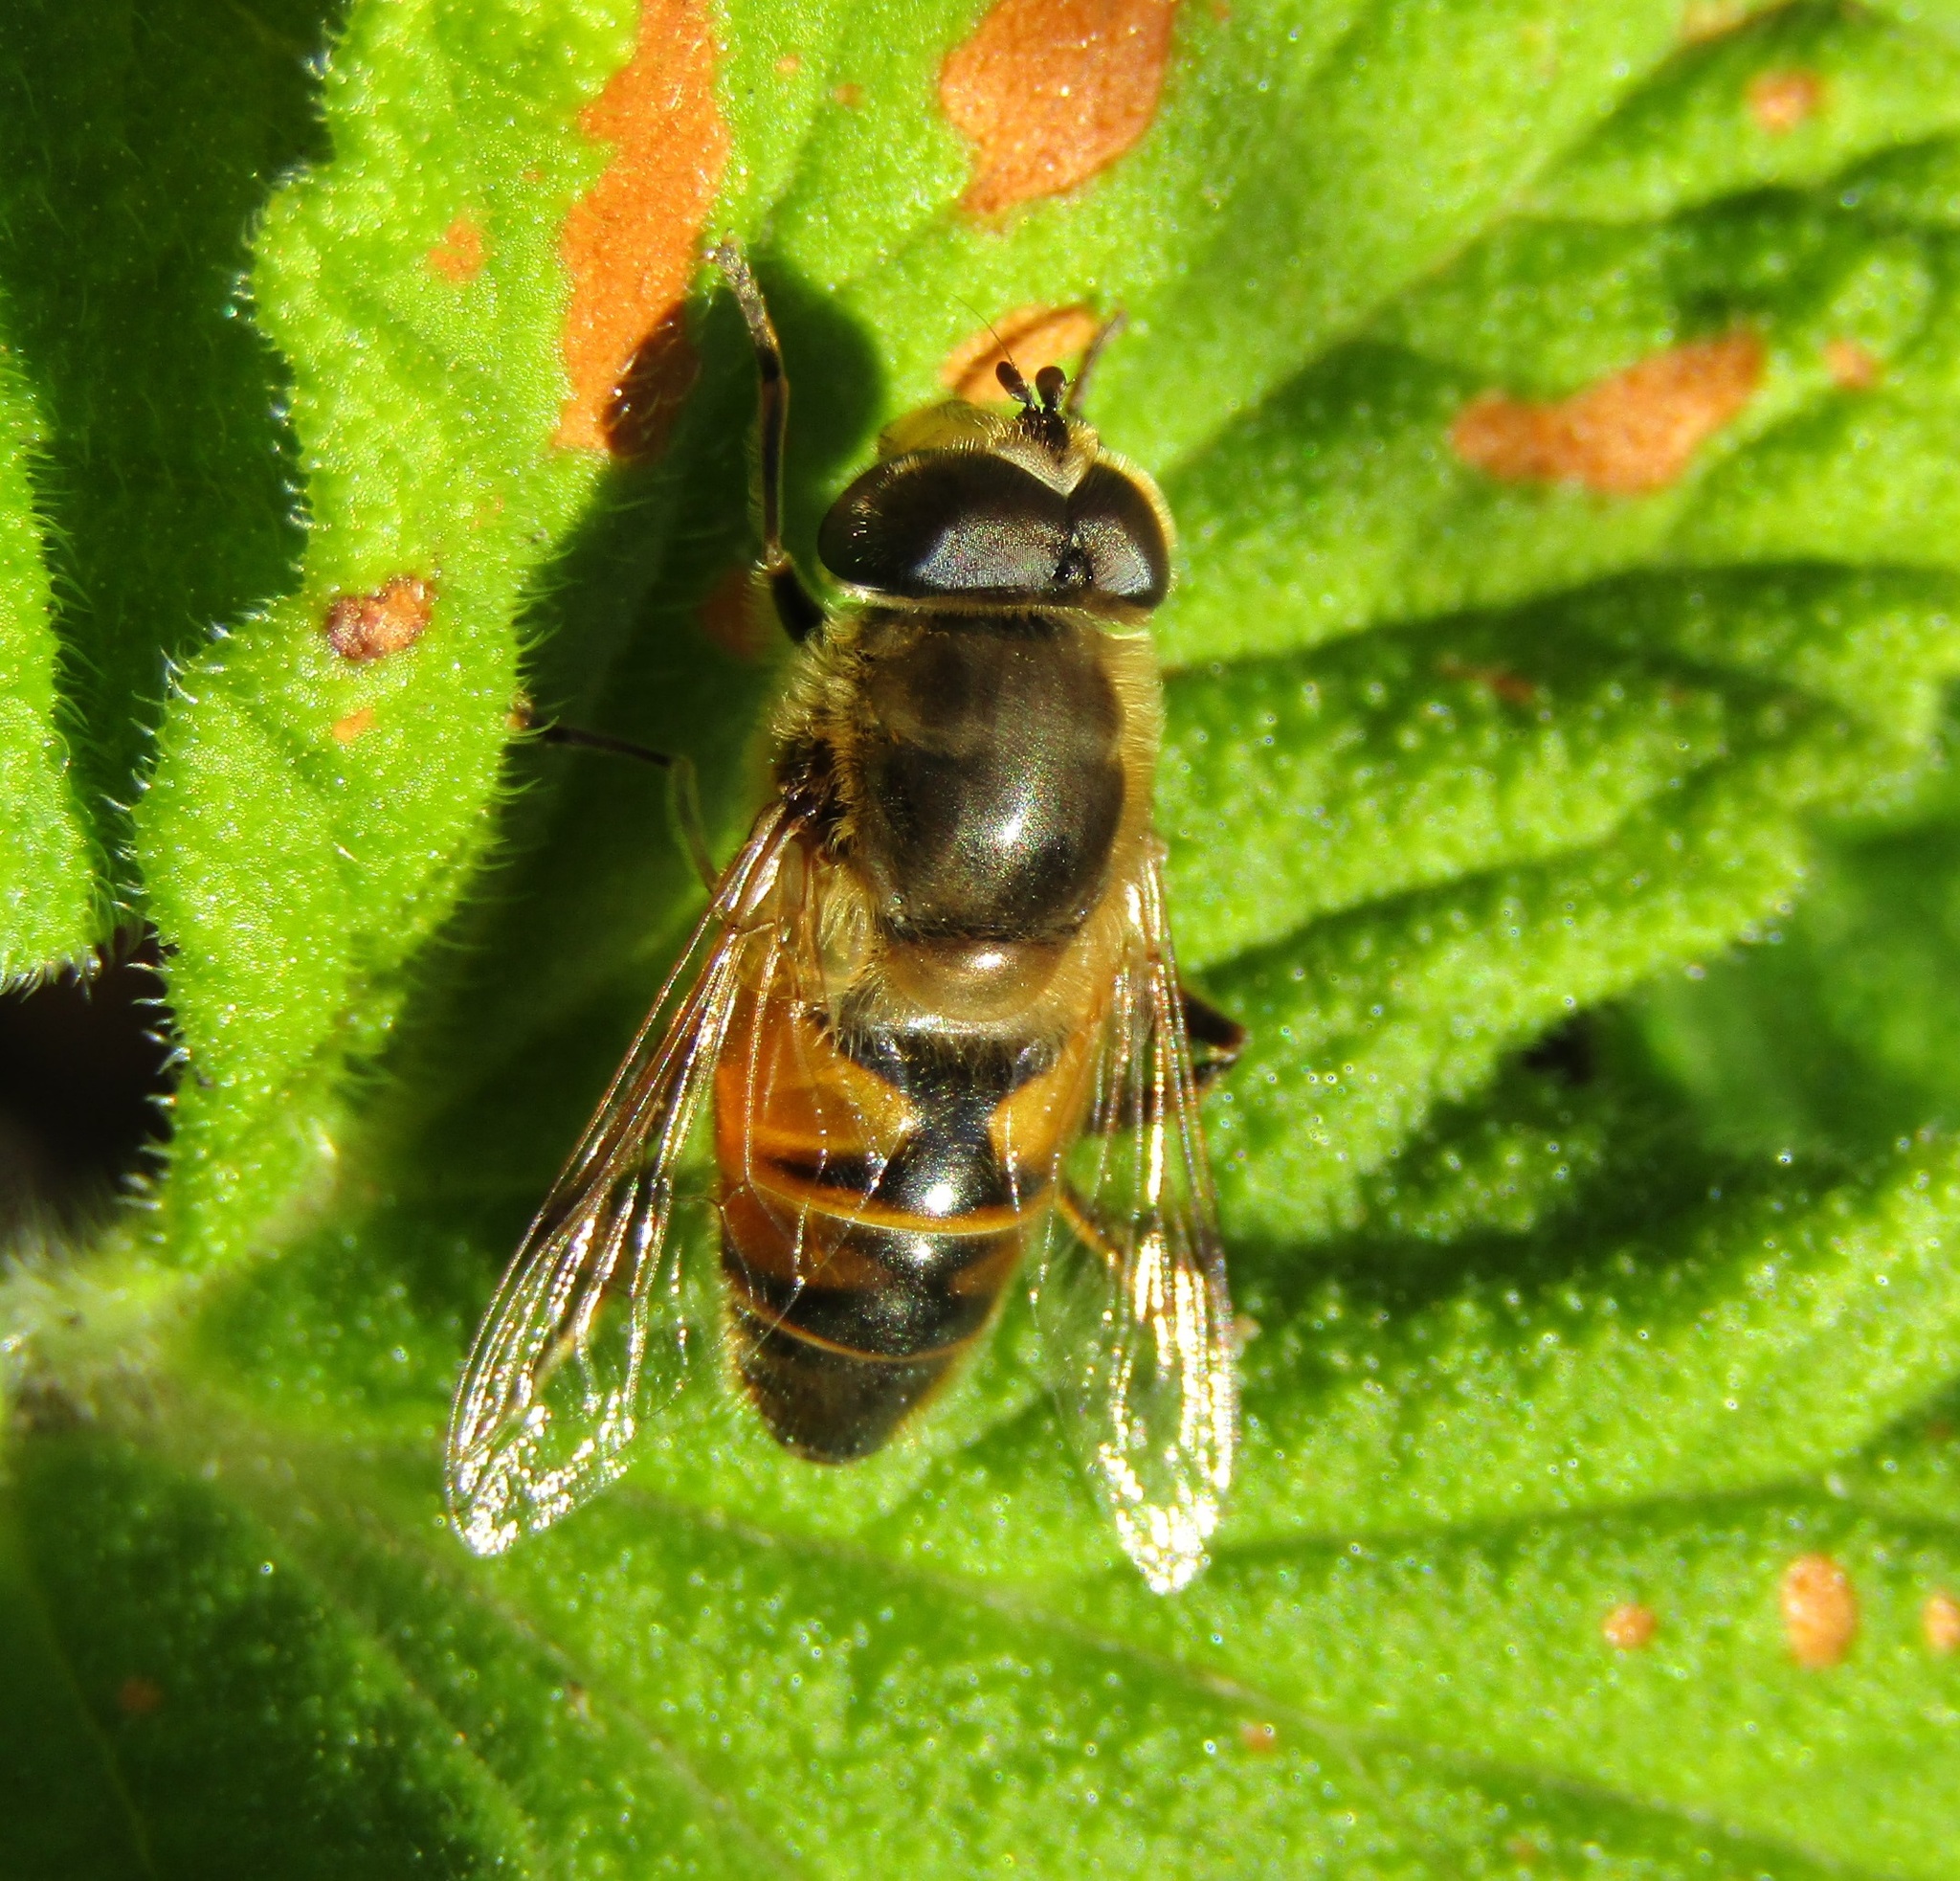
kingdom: Animalia
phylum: Arthropoda
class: Insecta
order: Diptera
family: Syrphidae
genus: Eristalis
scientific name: Eristalis tenax
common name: Drone fly
